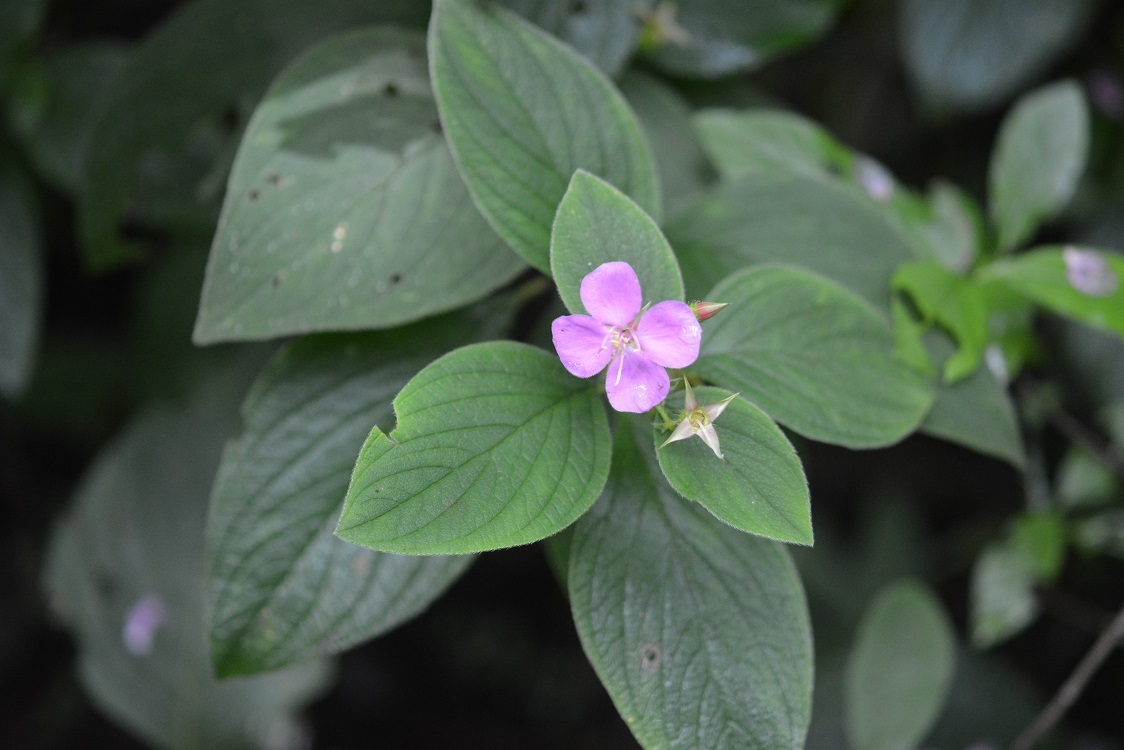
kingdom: Plantae
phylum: Tracheophyta
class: Magnoliopsida
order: Myrtales
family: Melastomataceae
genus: Heterocentron
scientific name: Heterocentron muricatum
